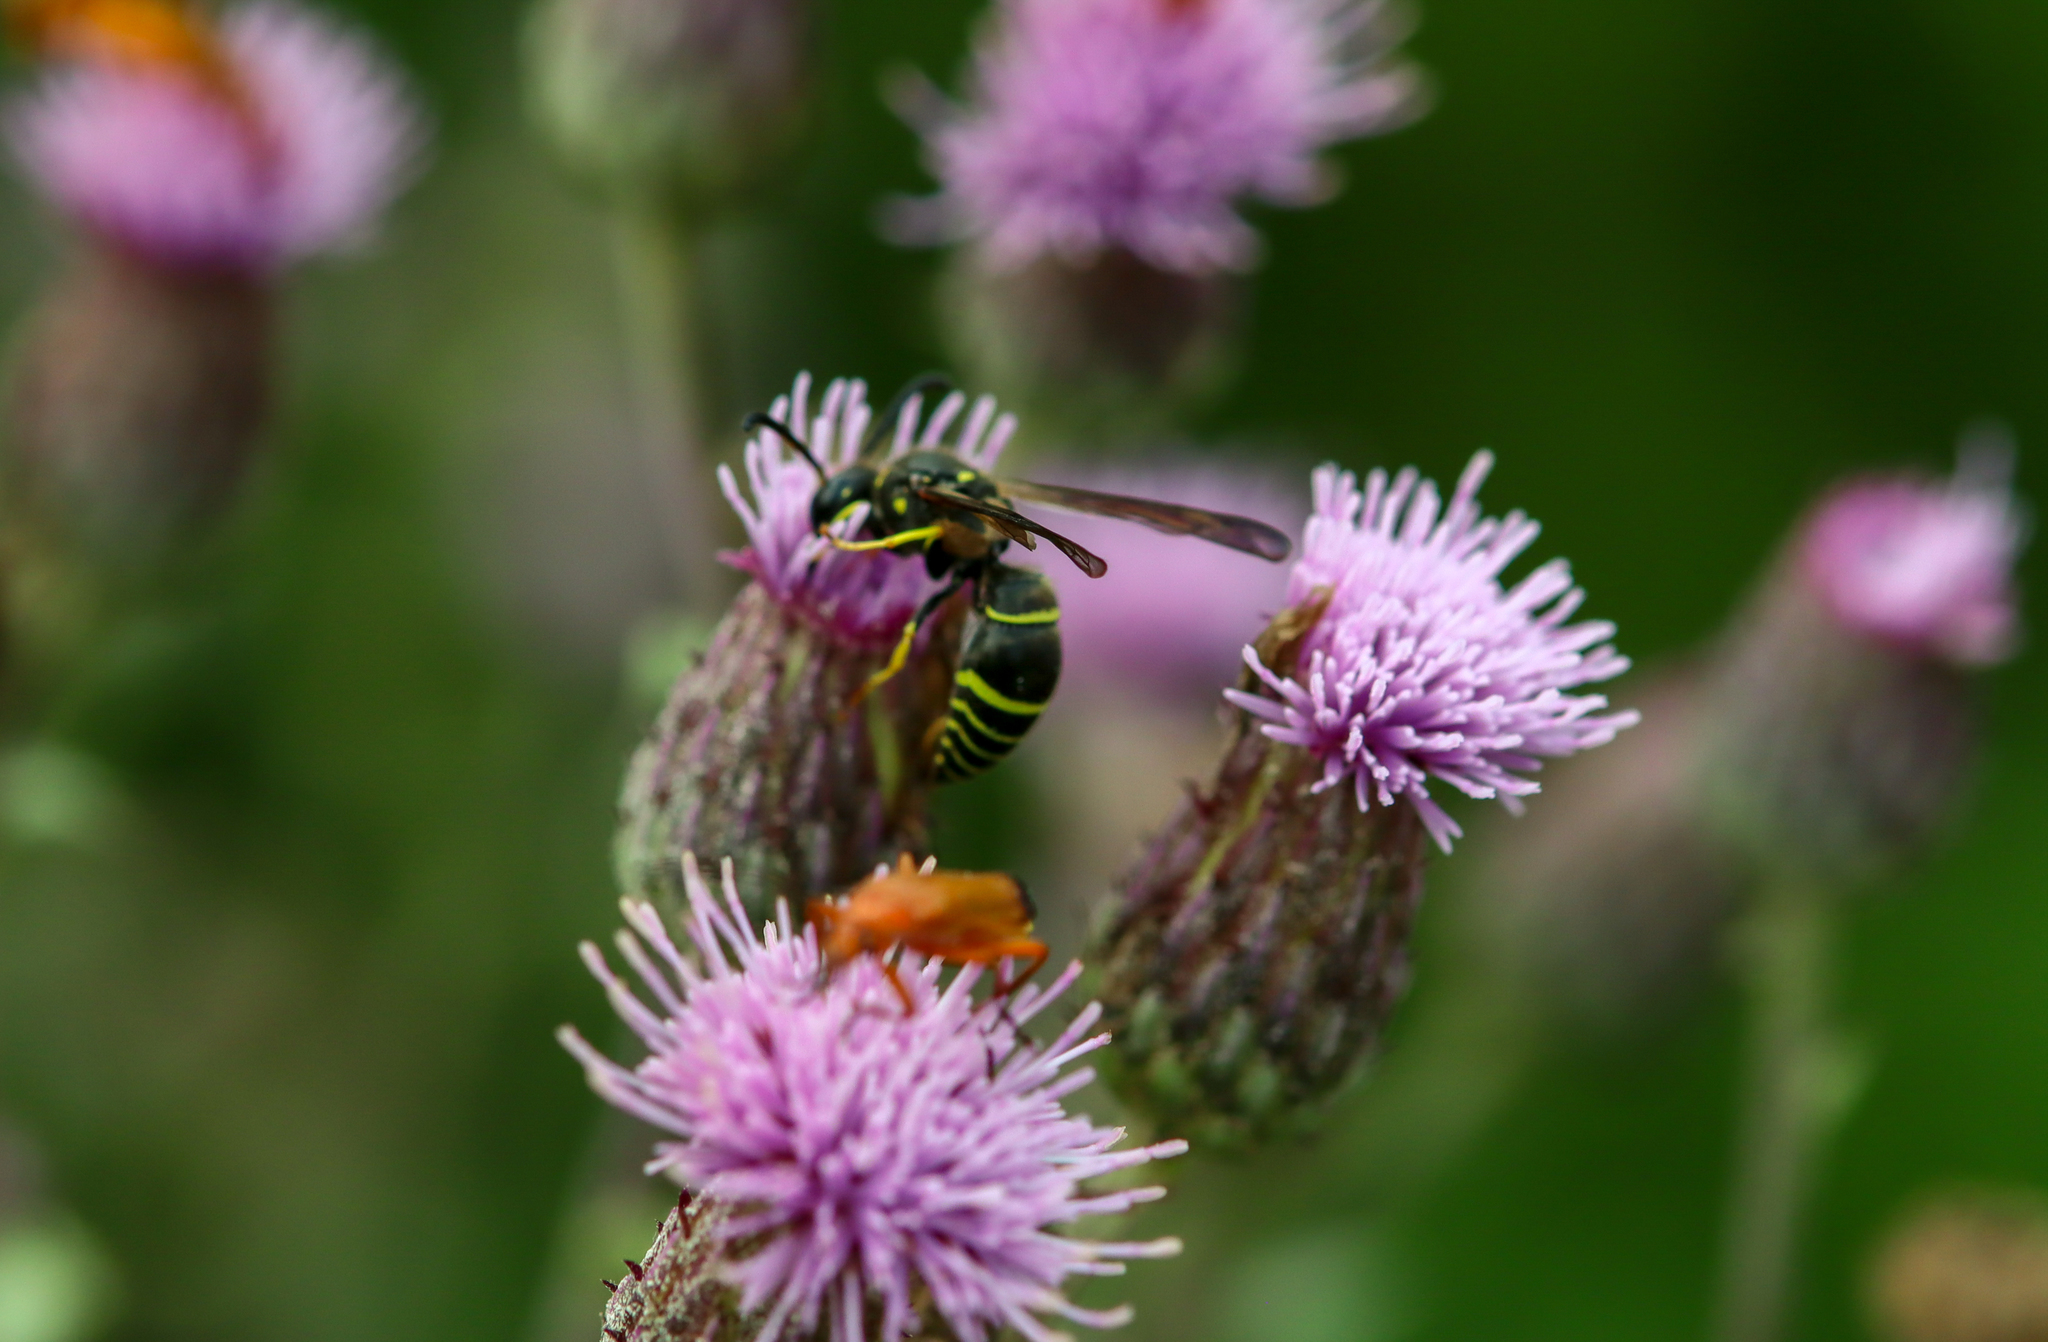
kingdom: Animalia
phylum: Arthropoda
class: Insecta
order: Hymenoptera
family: Vespidae
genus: Ancistrocerus
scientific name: Ancistrocerus
